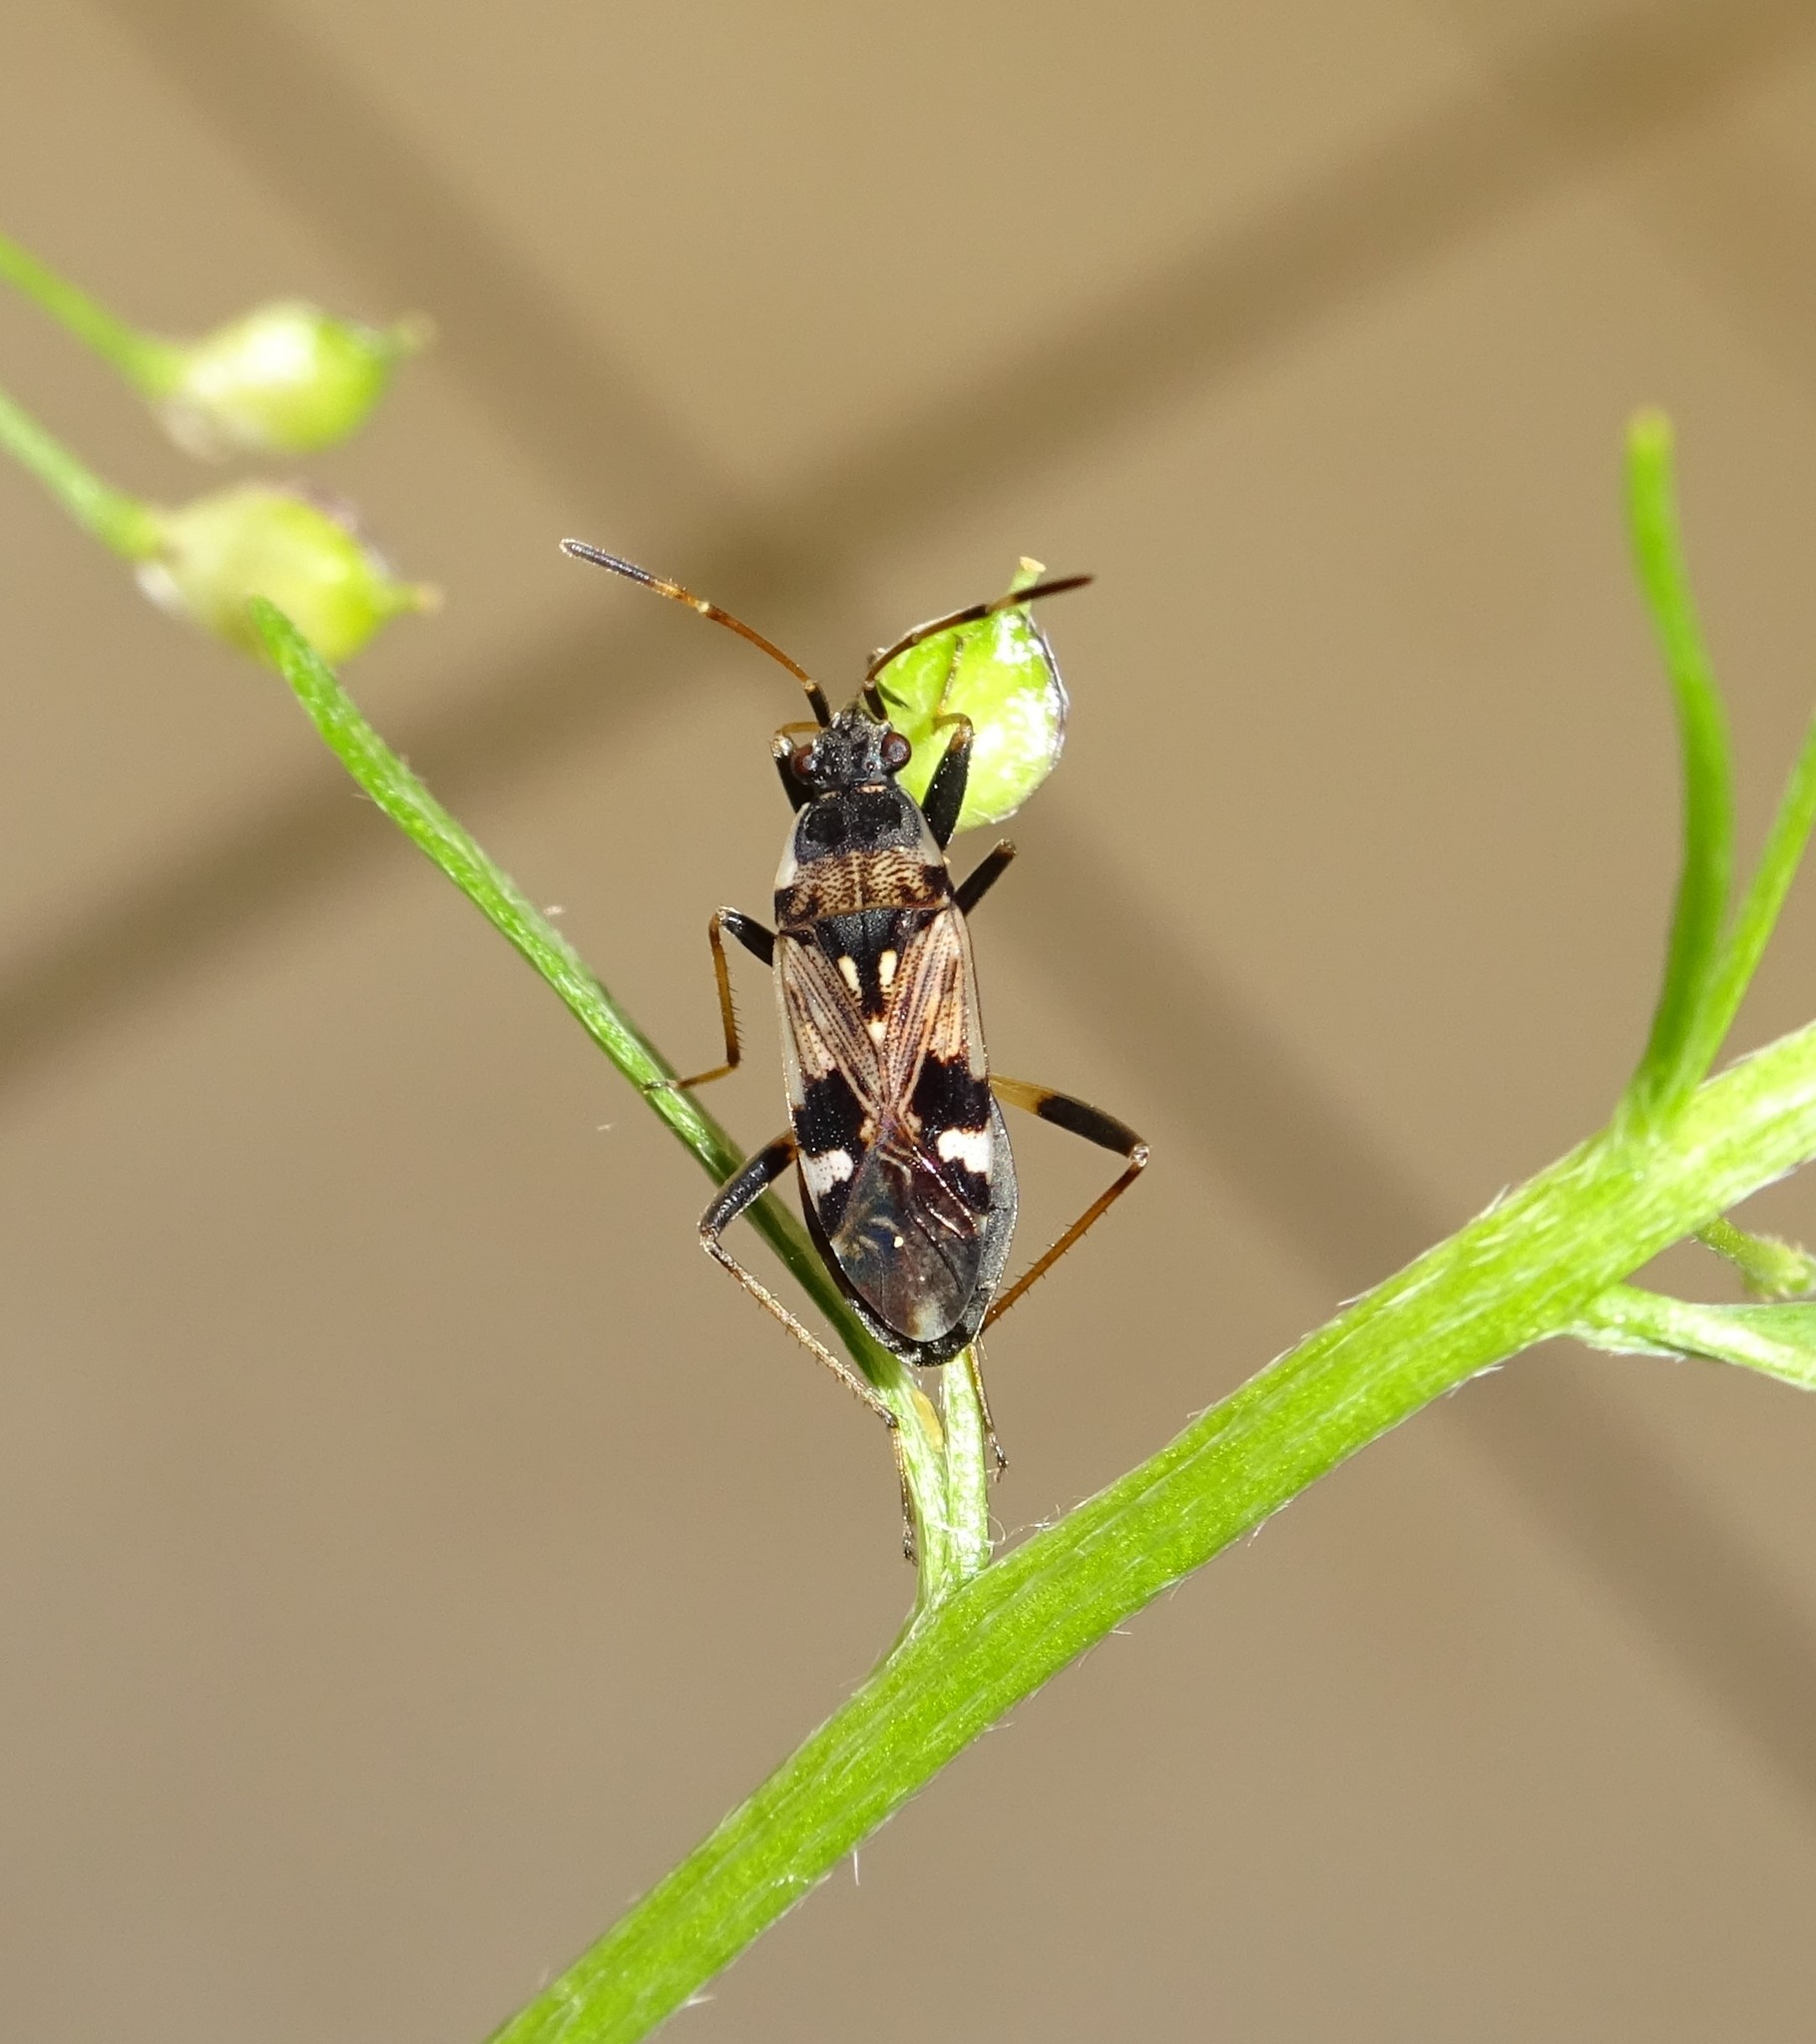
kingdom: Animalia
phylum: Arthropoda
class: Insecta
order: Hemiptera
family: Rhyparochromidae
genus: Beosus
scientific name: Beosus maritimus
